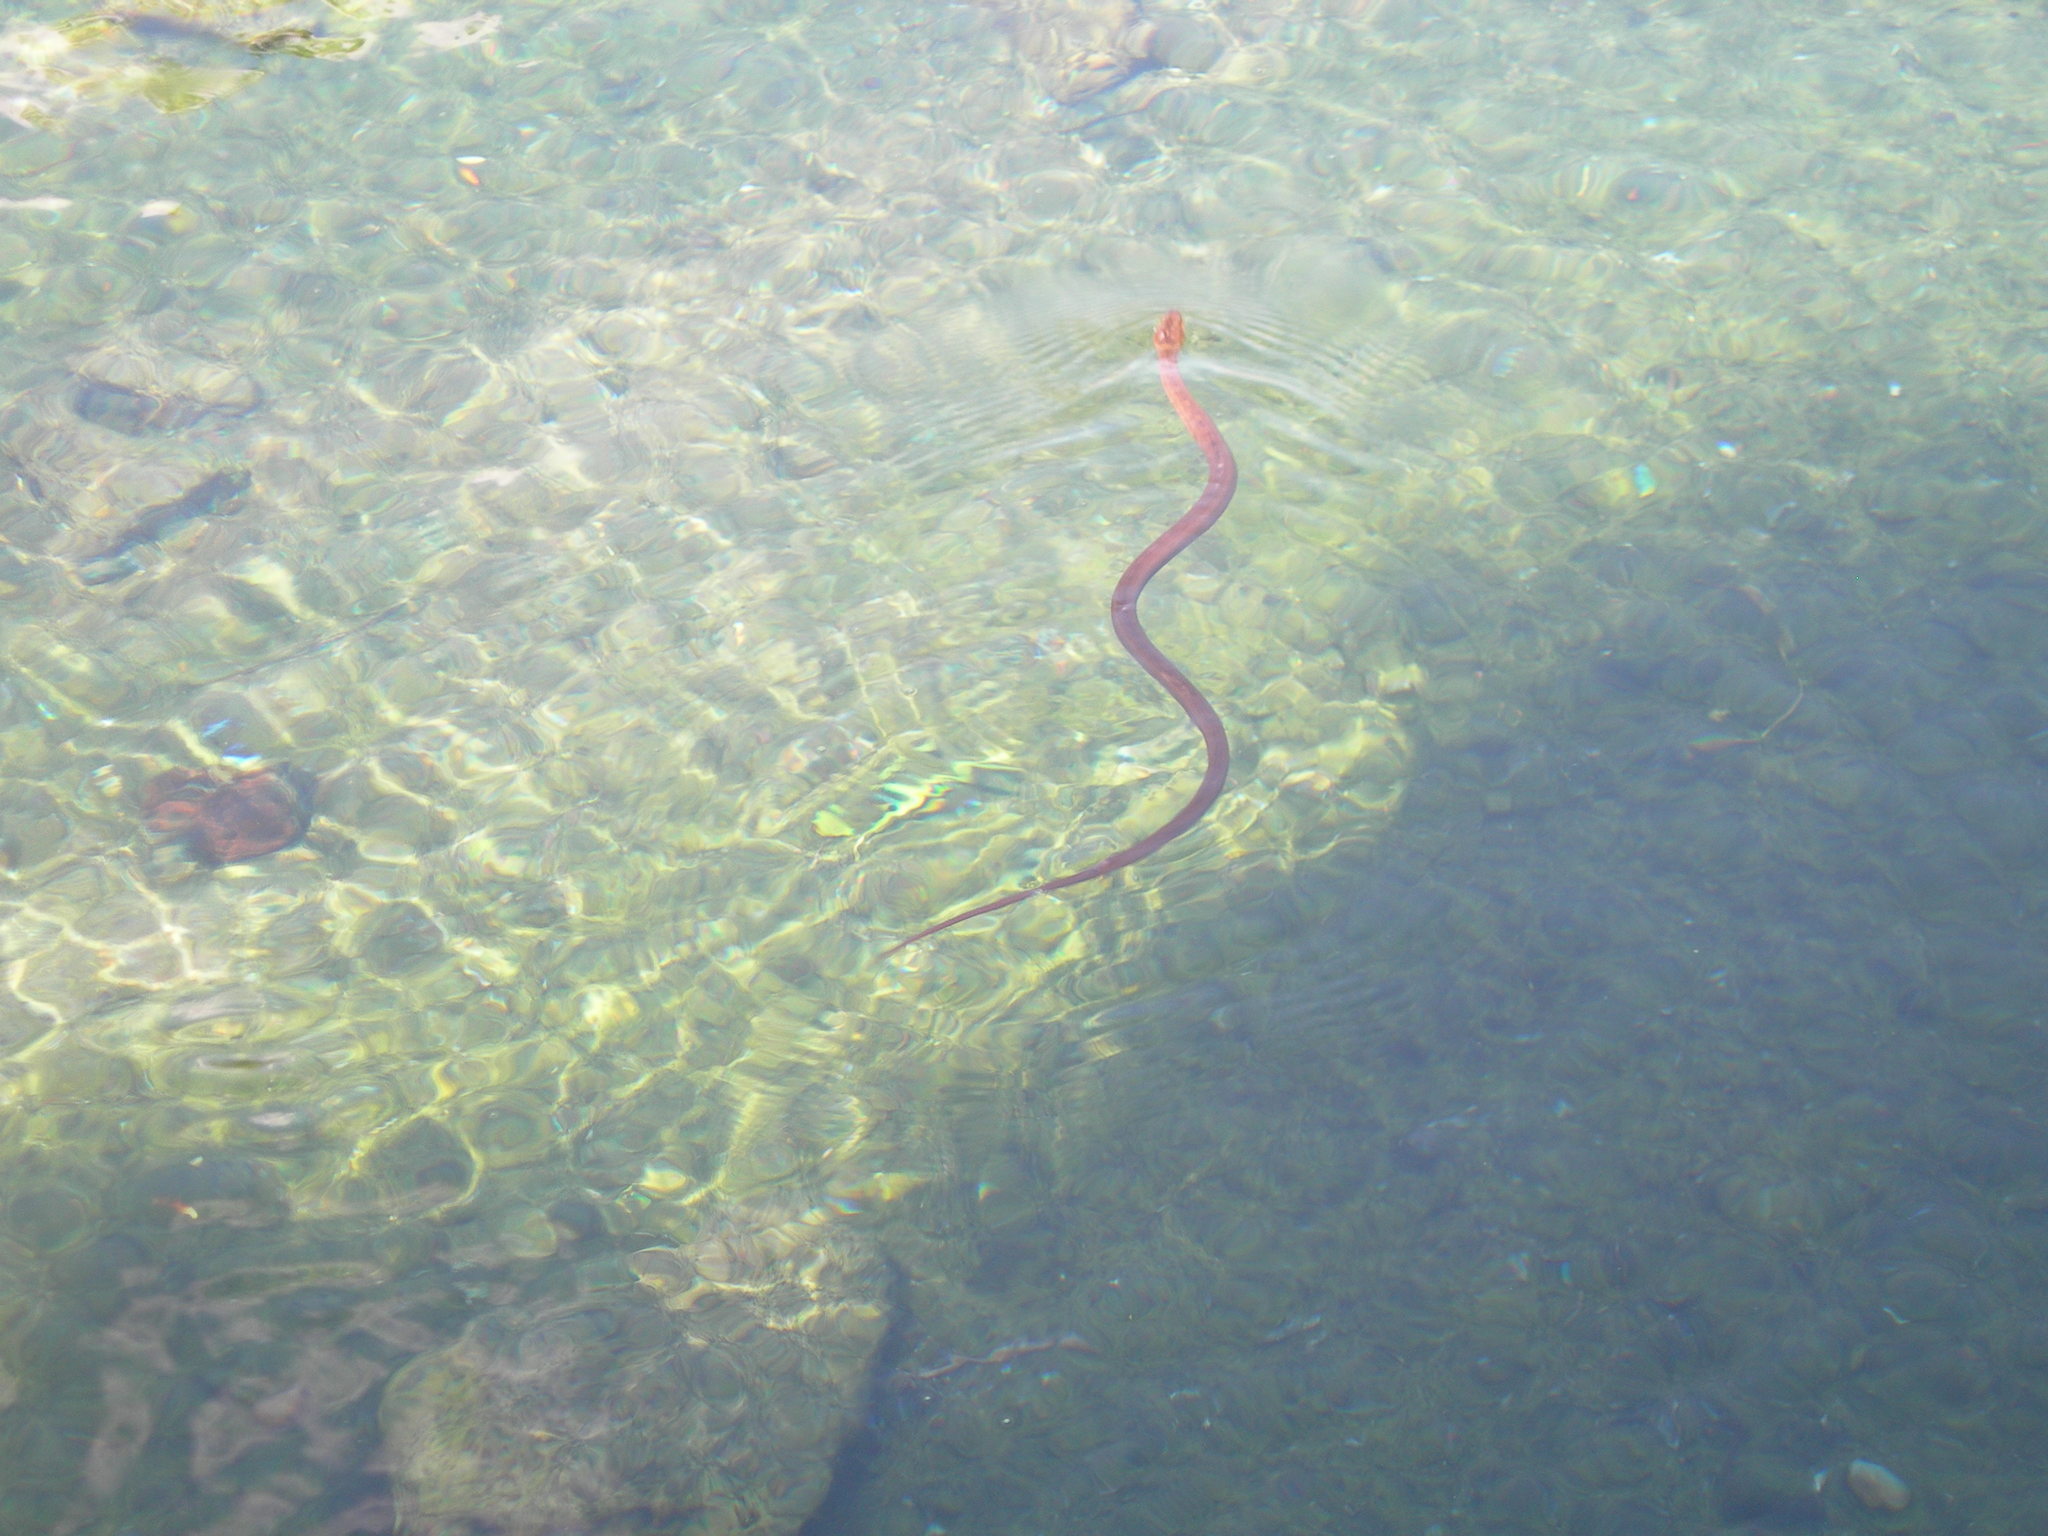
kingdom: Animalia
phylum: Chordata
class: Squamata
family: Colubridae
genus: Nerodia
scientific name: Nerodia erythrogaster
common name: Plainbelly water snake
